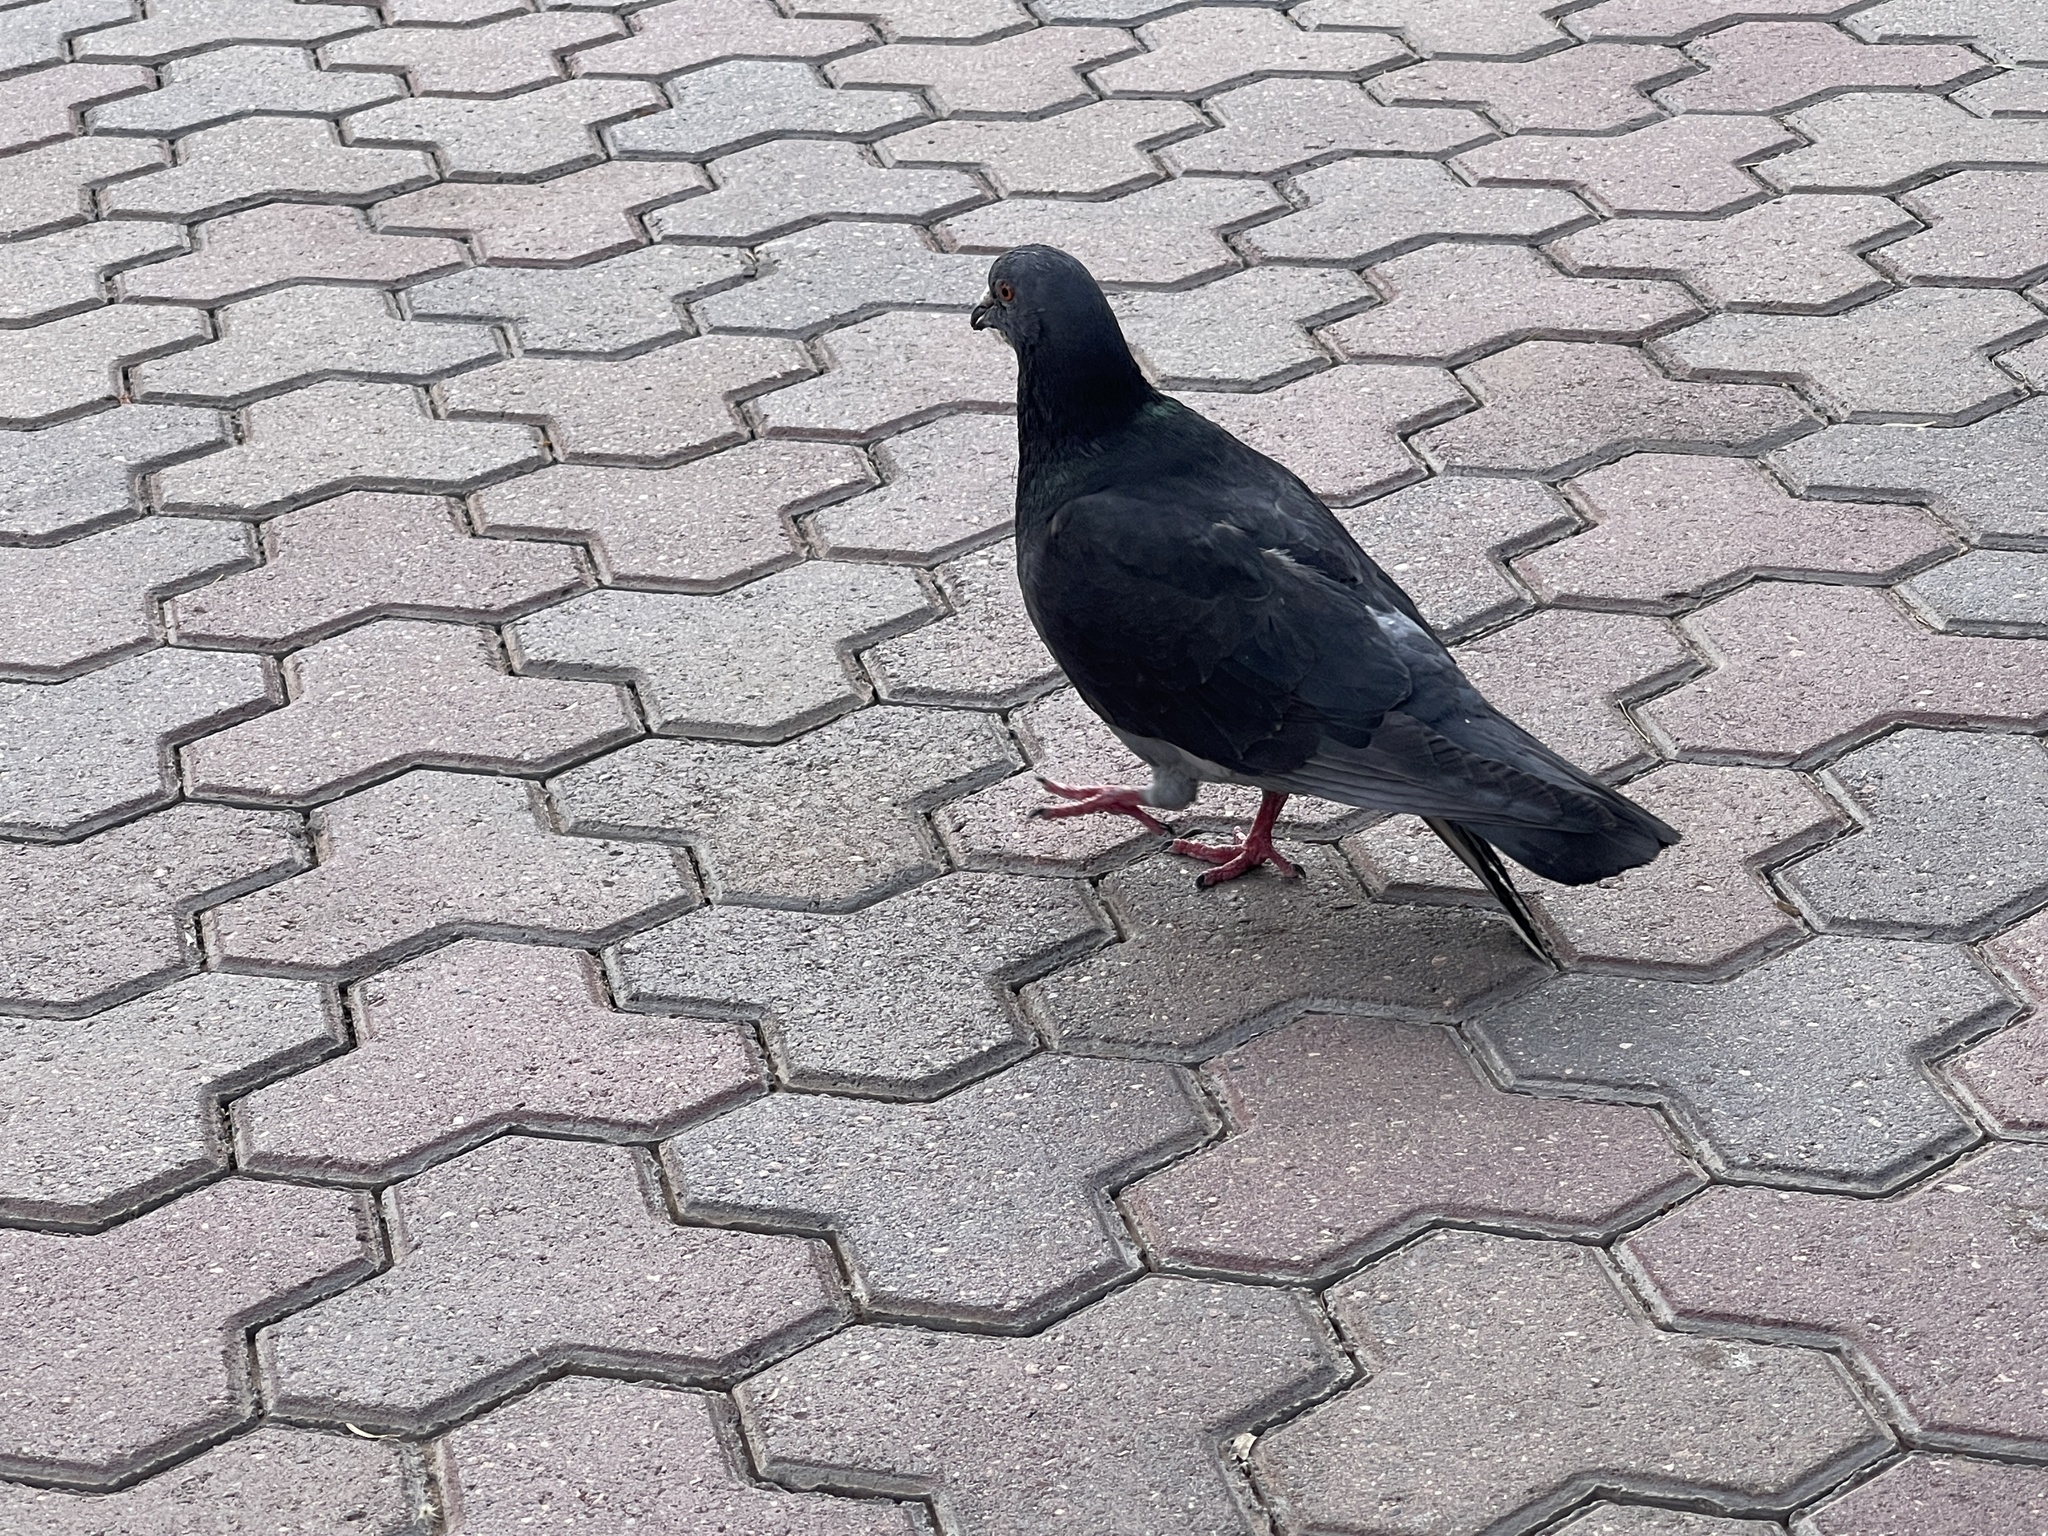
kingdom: Animalia
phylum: Chordata
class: Aves
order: Columbiformes
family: Columbidae
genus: Columba
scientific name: Columba livia
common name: Rock pigeon
